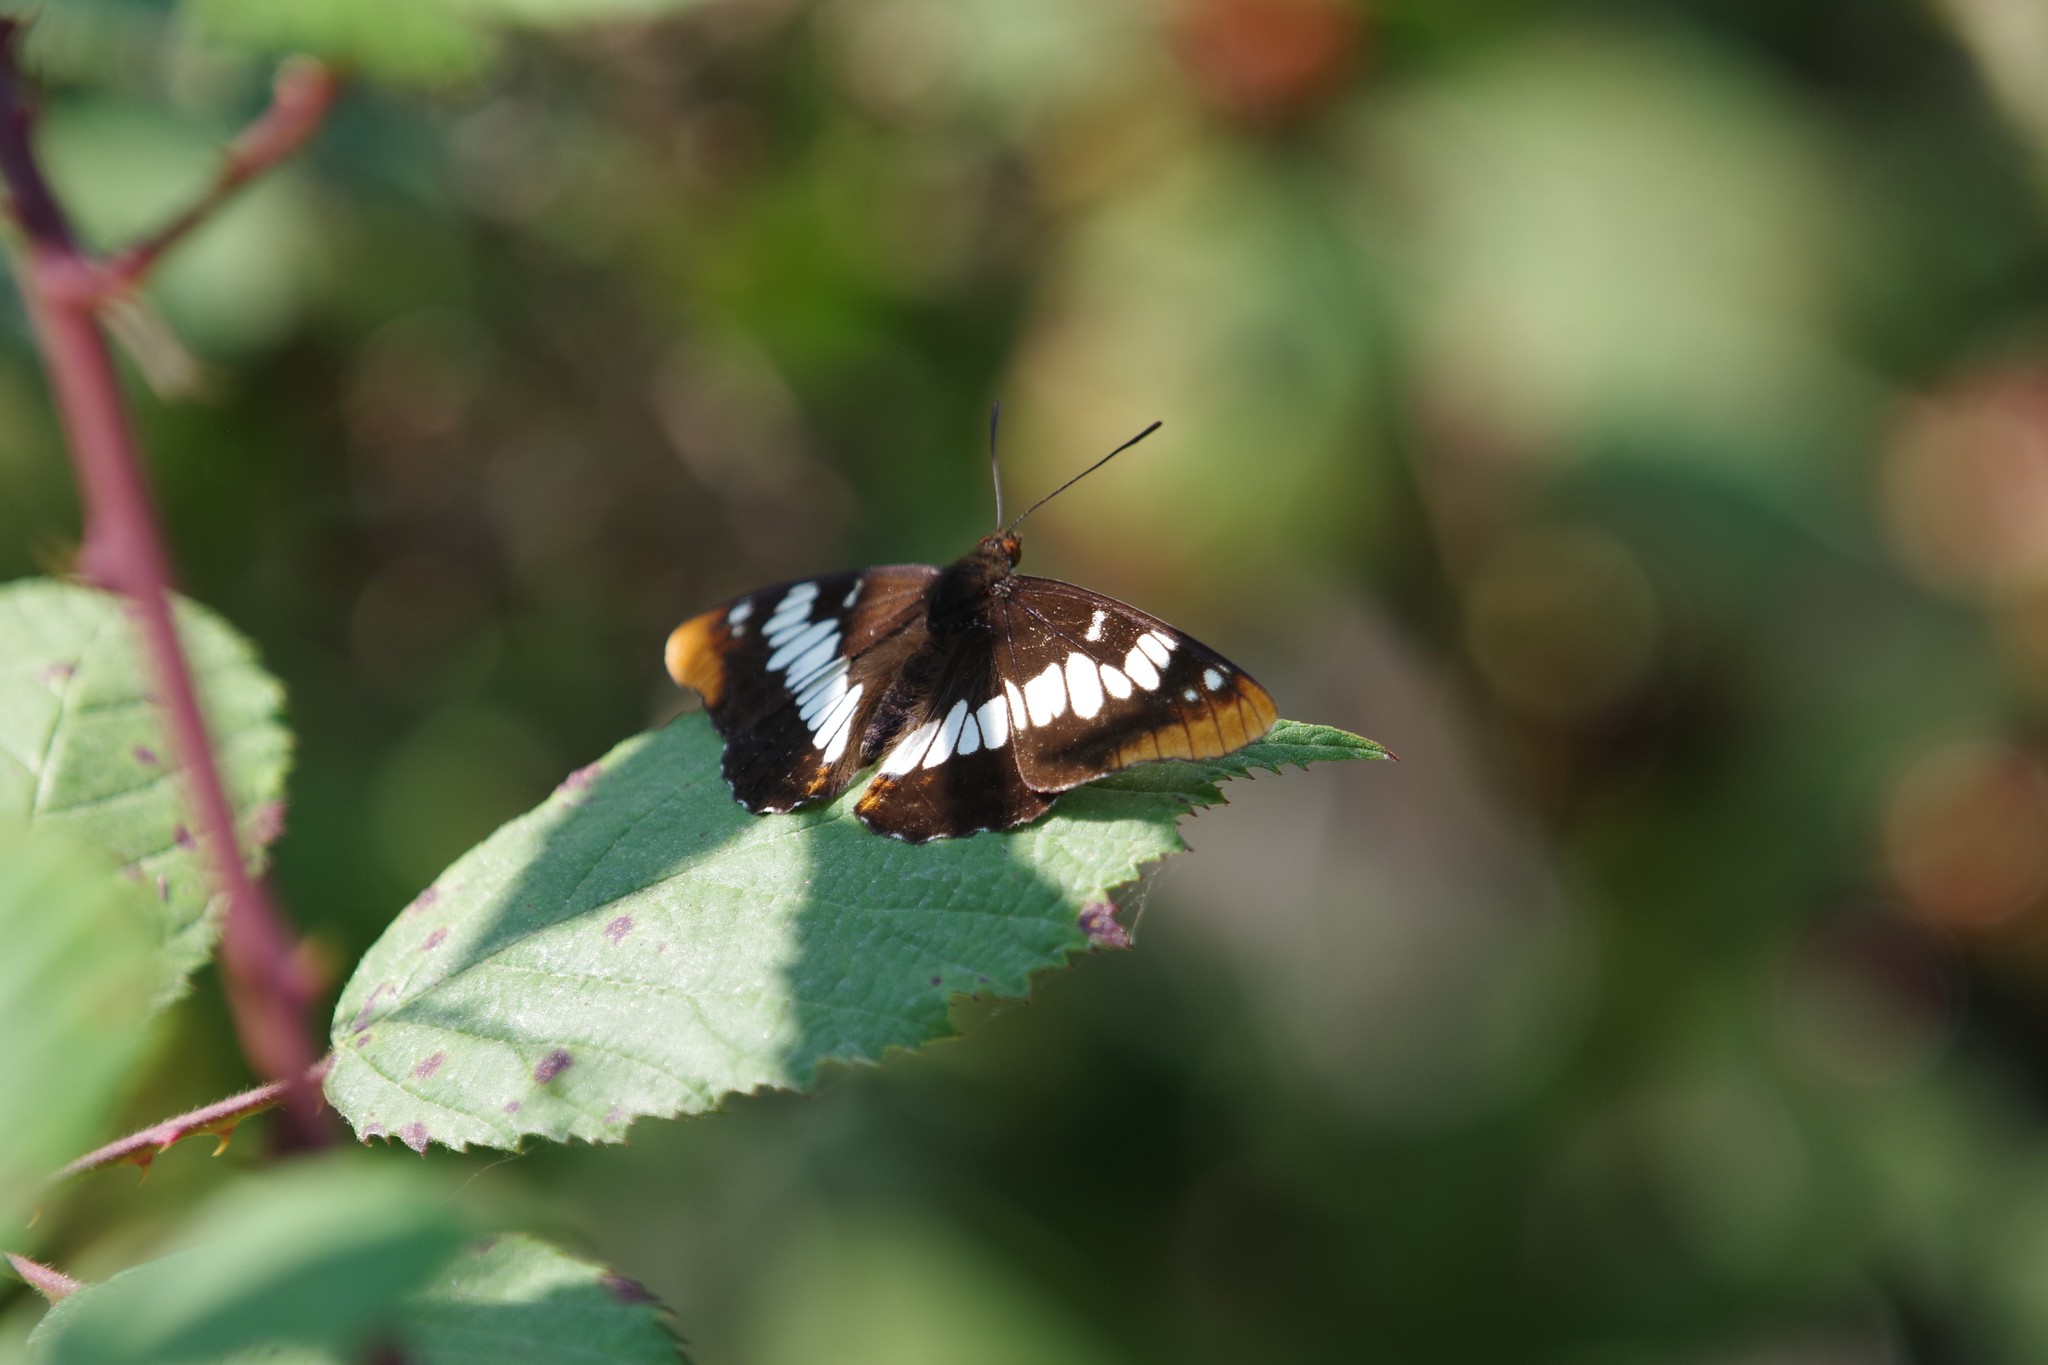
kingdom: Animalia
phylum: Arthropoda
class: Insecta
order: Lepidoptera
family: Nymphalidae
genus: Limenitis
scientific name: Limenitis lorquini
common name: Lorquin's admiral
